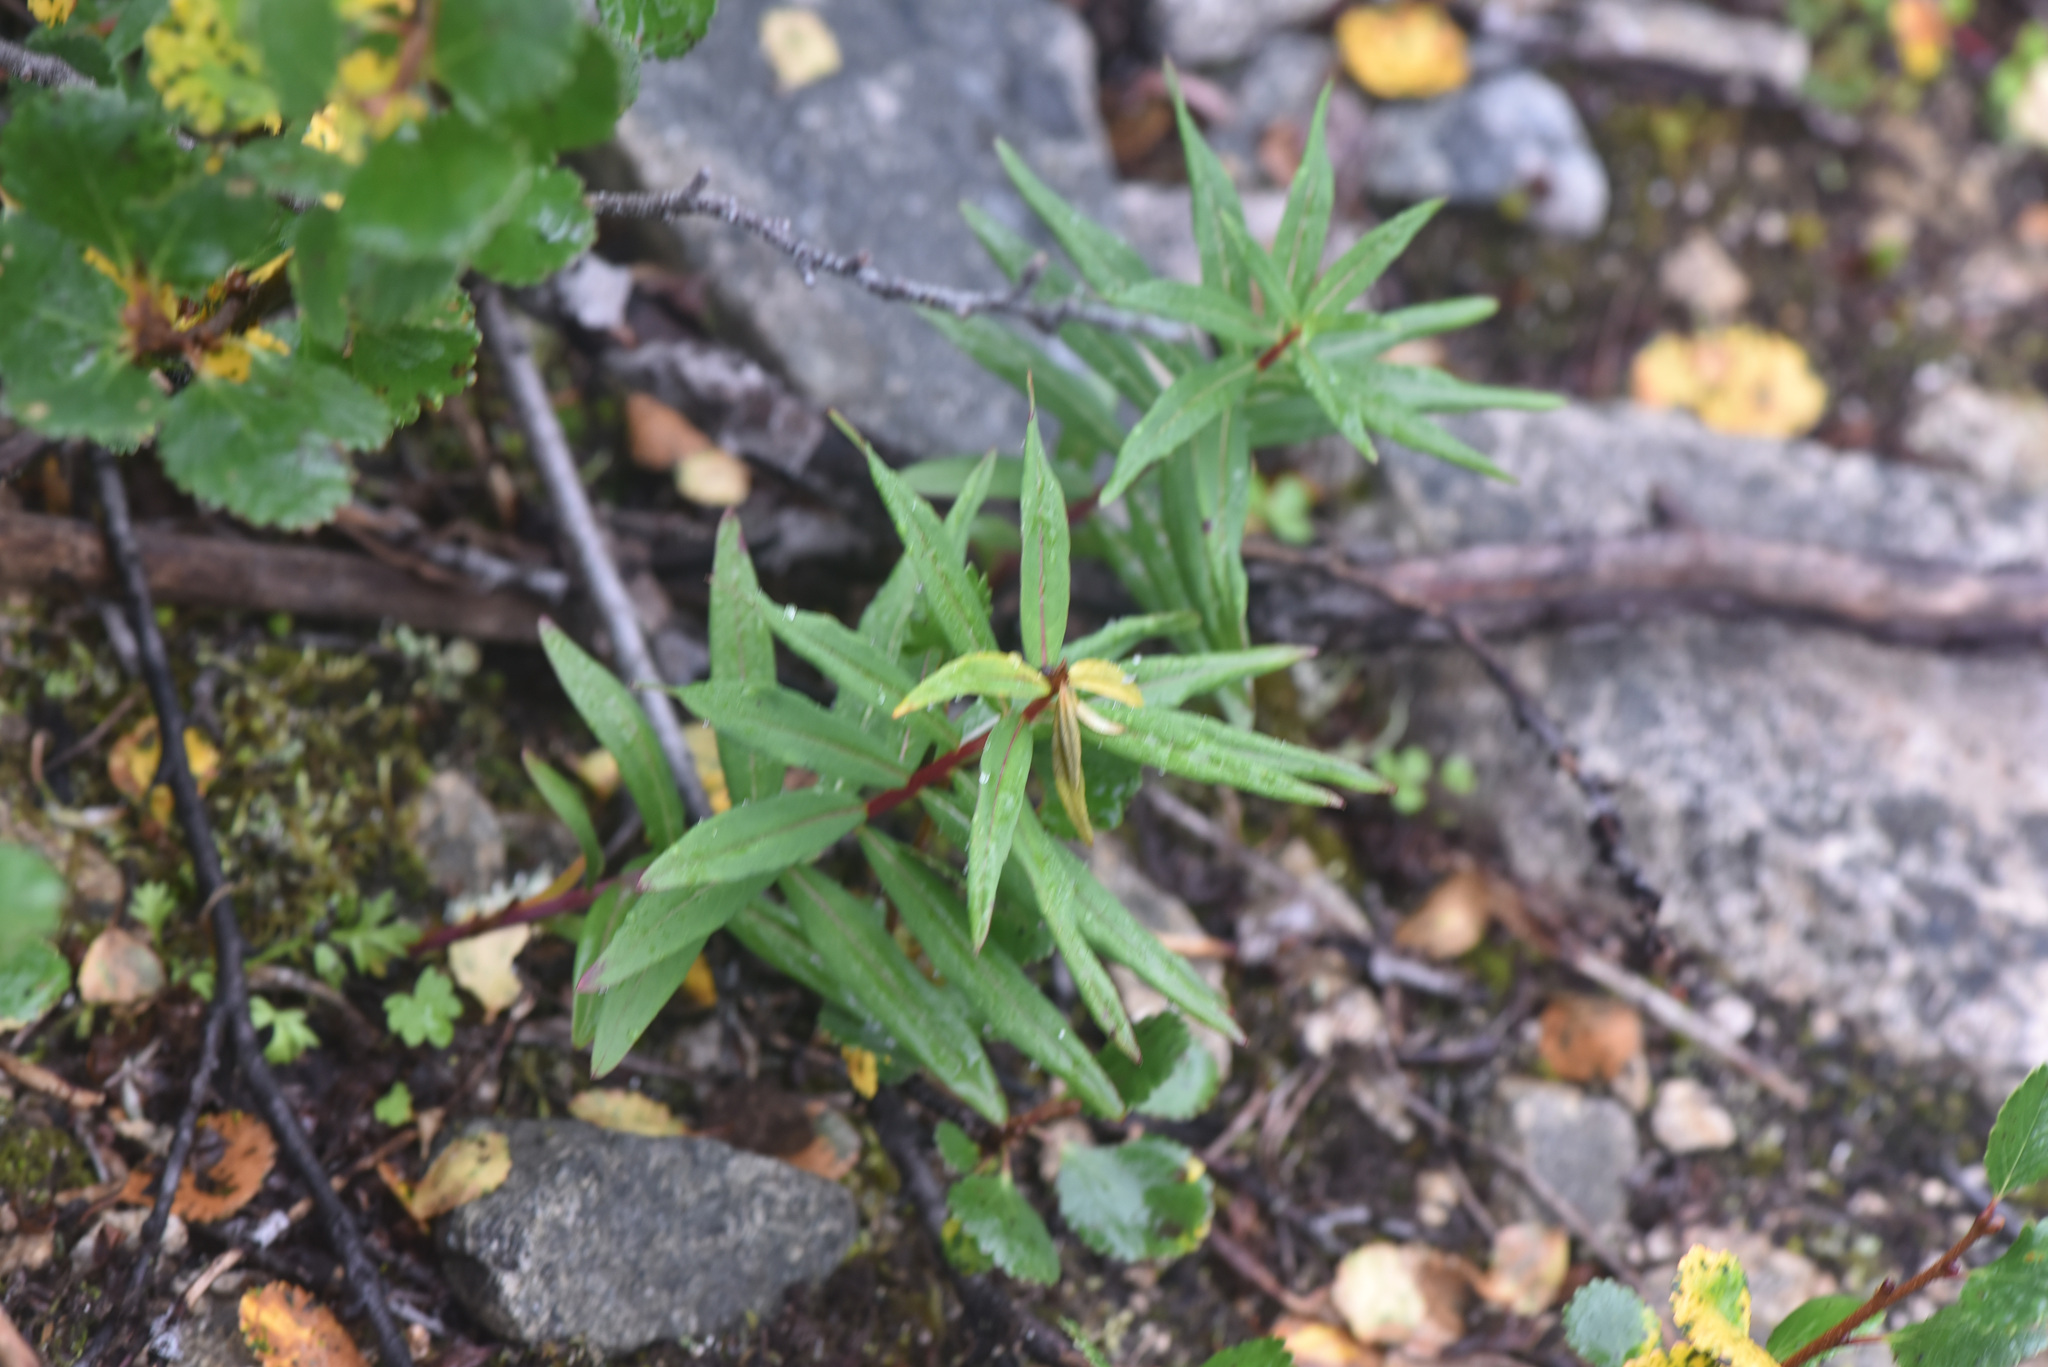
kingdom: Plantae
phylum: Tracheophyta
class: Magnoliopsida
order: Myrtales
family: Onagraceae
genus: Chamaenerion
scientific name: Chamaenerion angustifolium
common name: Fireweed
